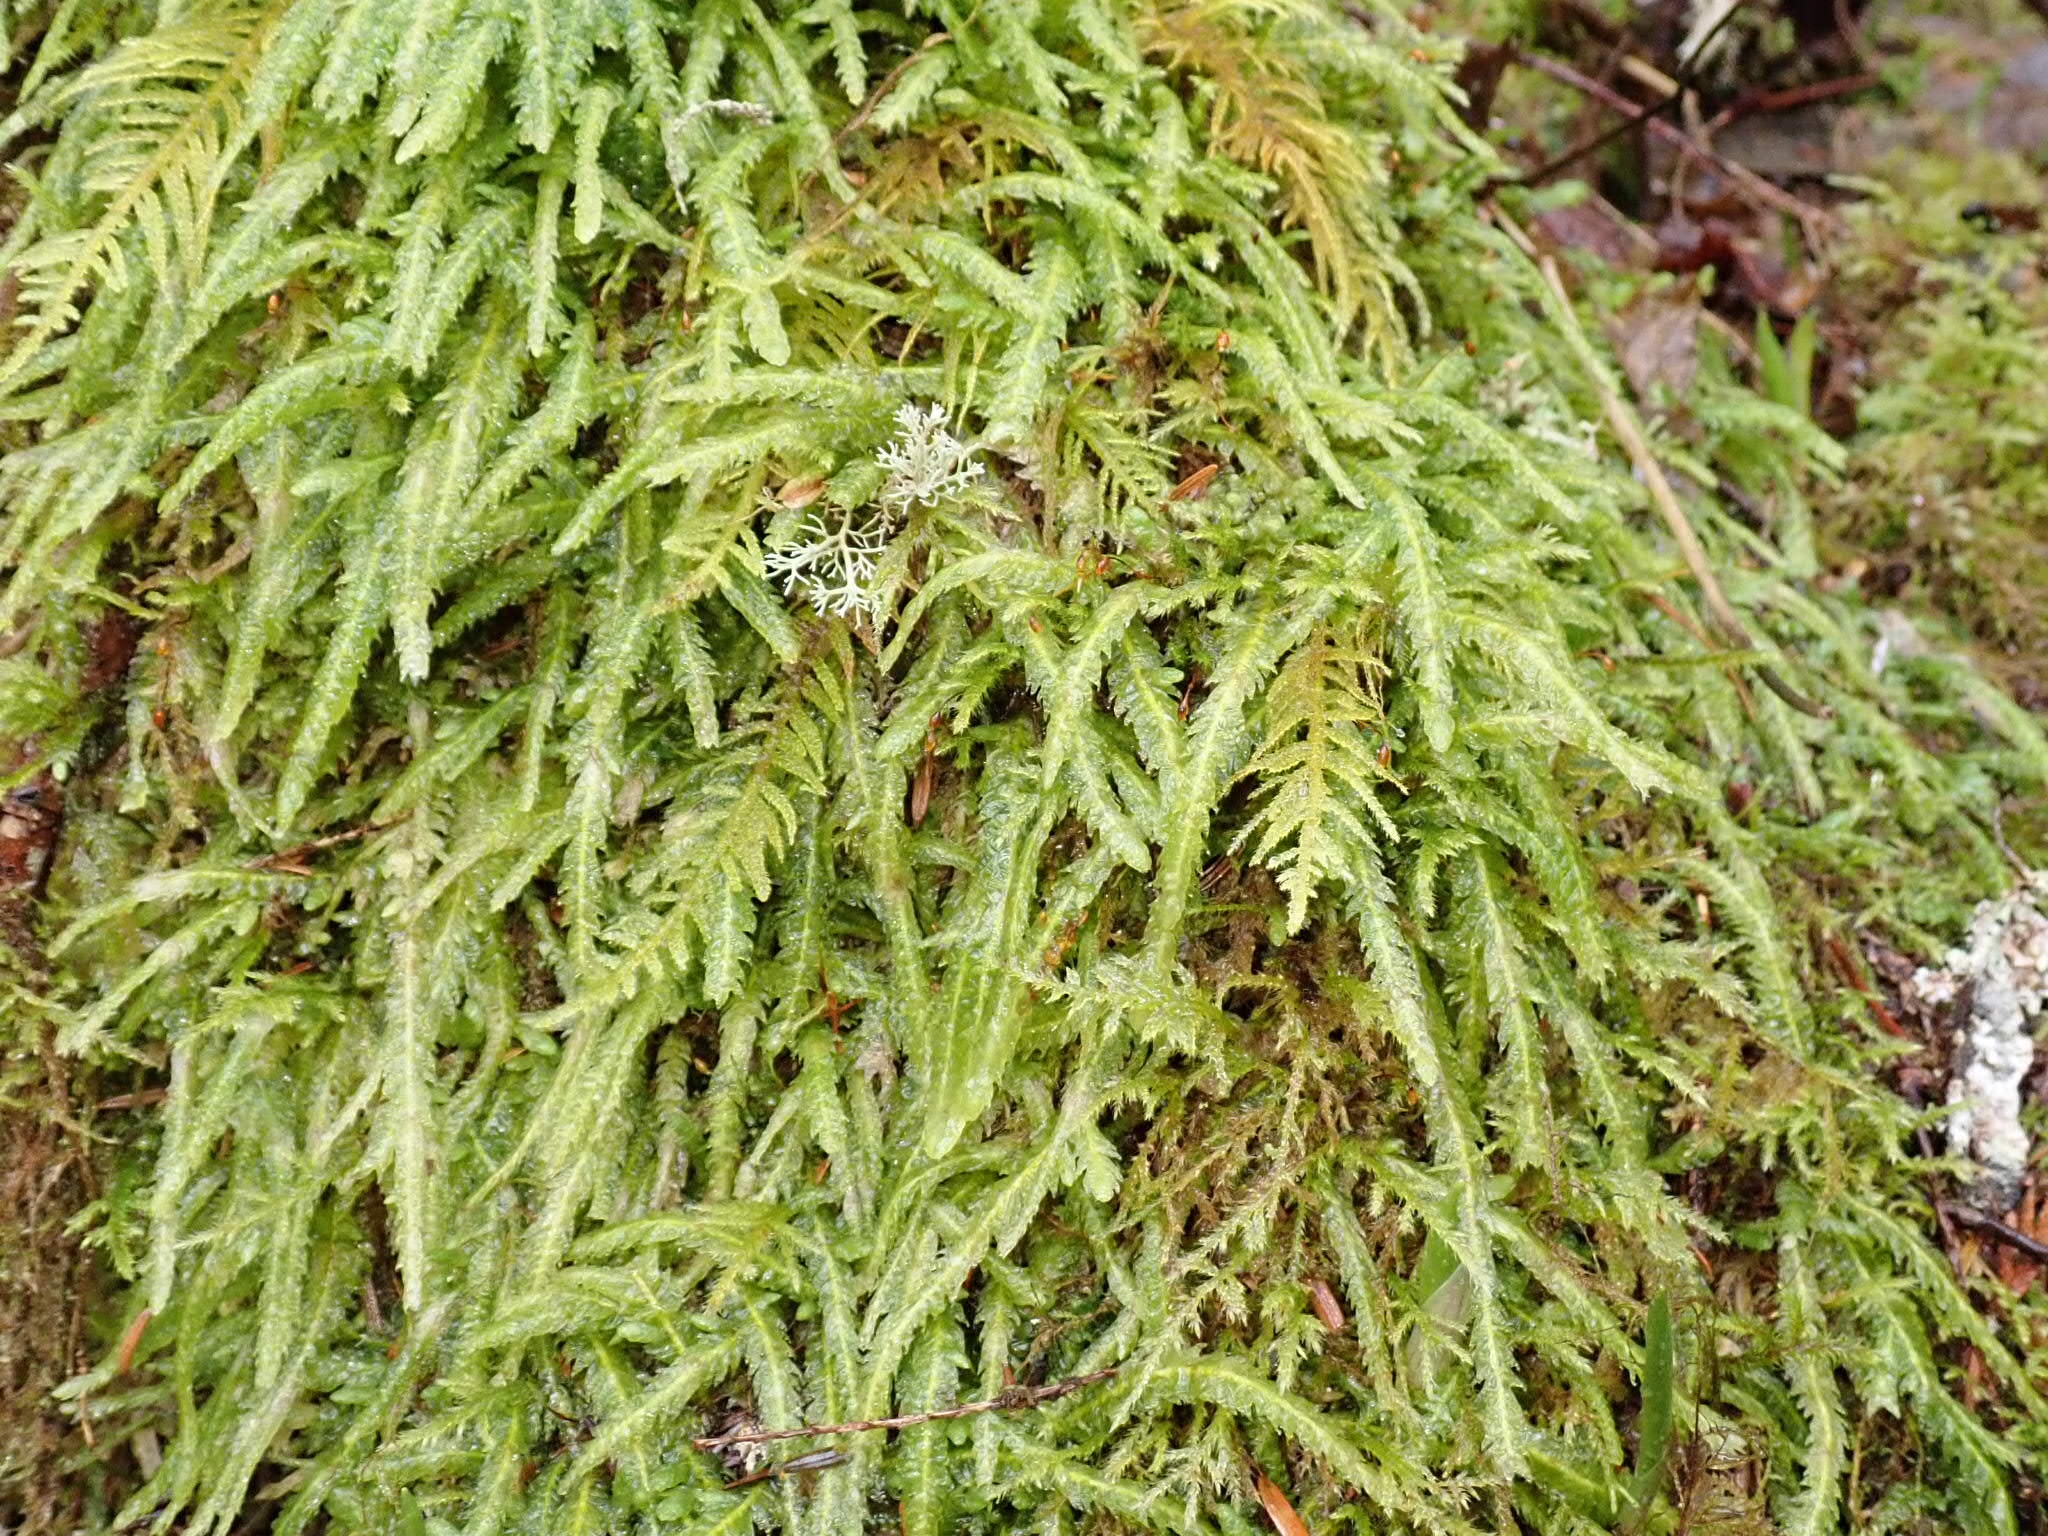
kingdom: Plantae
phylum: Bryophyta
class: Bryopsida
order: Hypnales
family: Plagiotheciaceae
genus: Plagiothecium
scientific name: Plagiothecium undulatum
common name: Waved silk-moss
